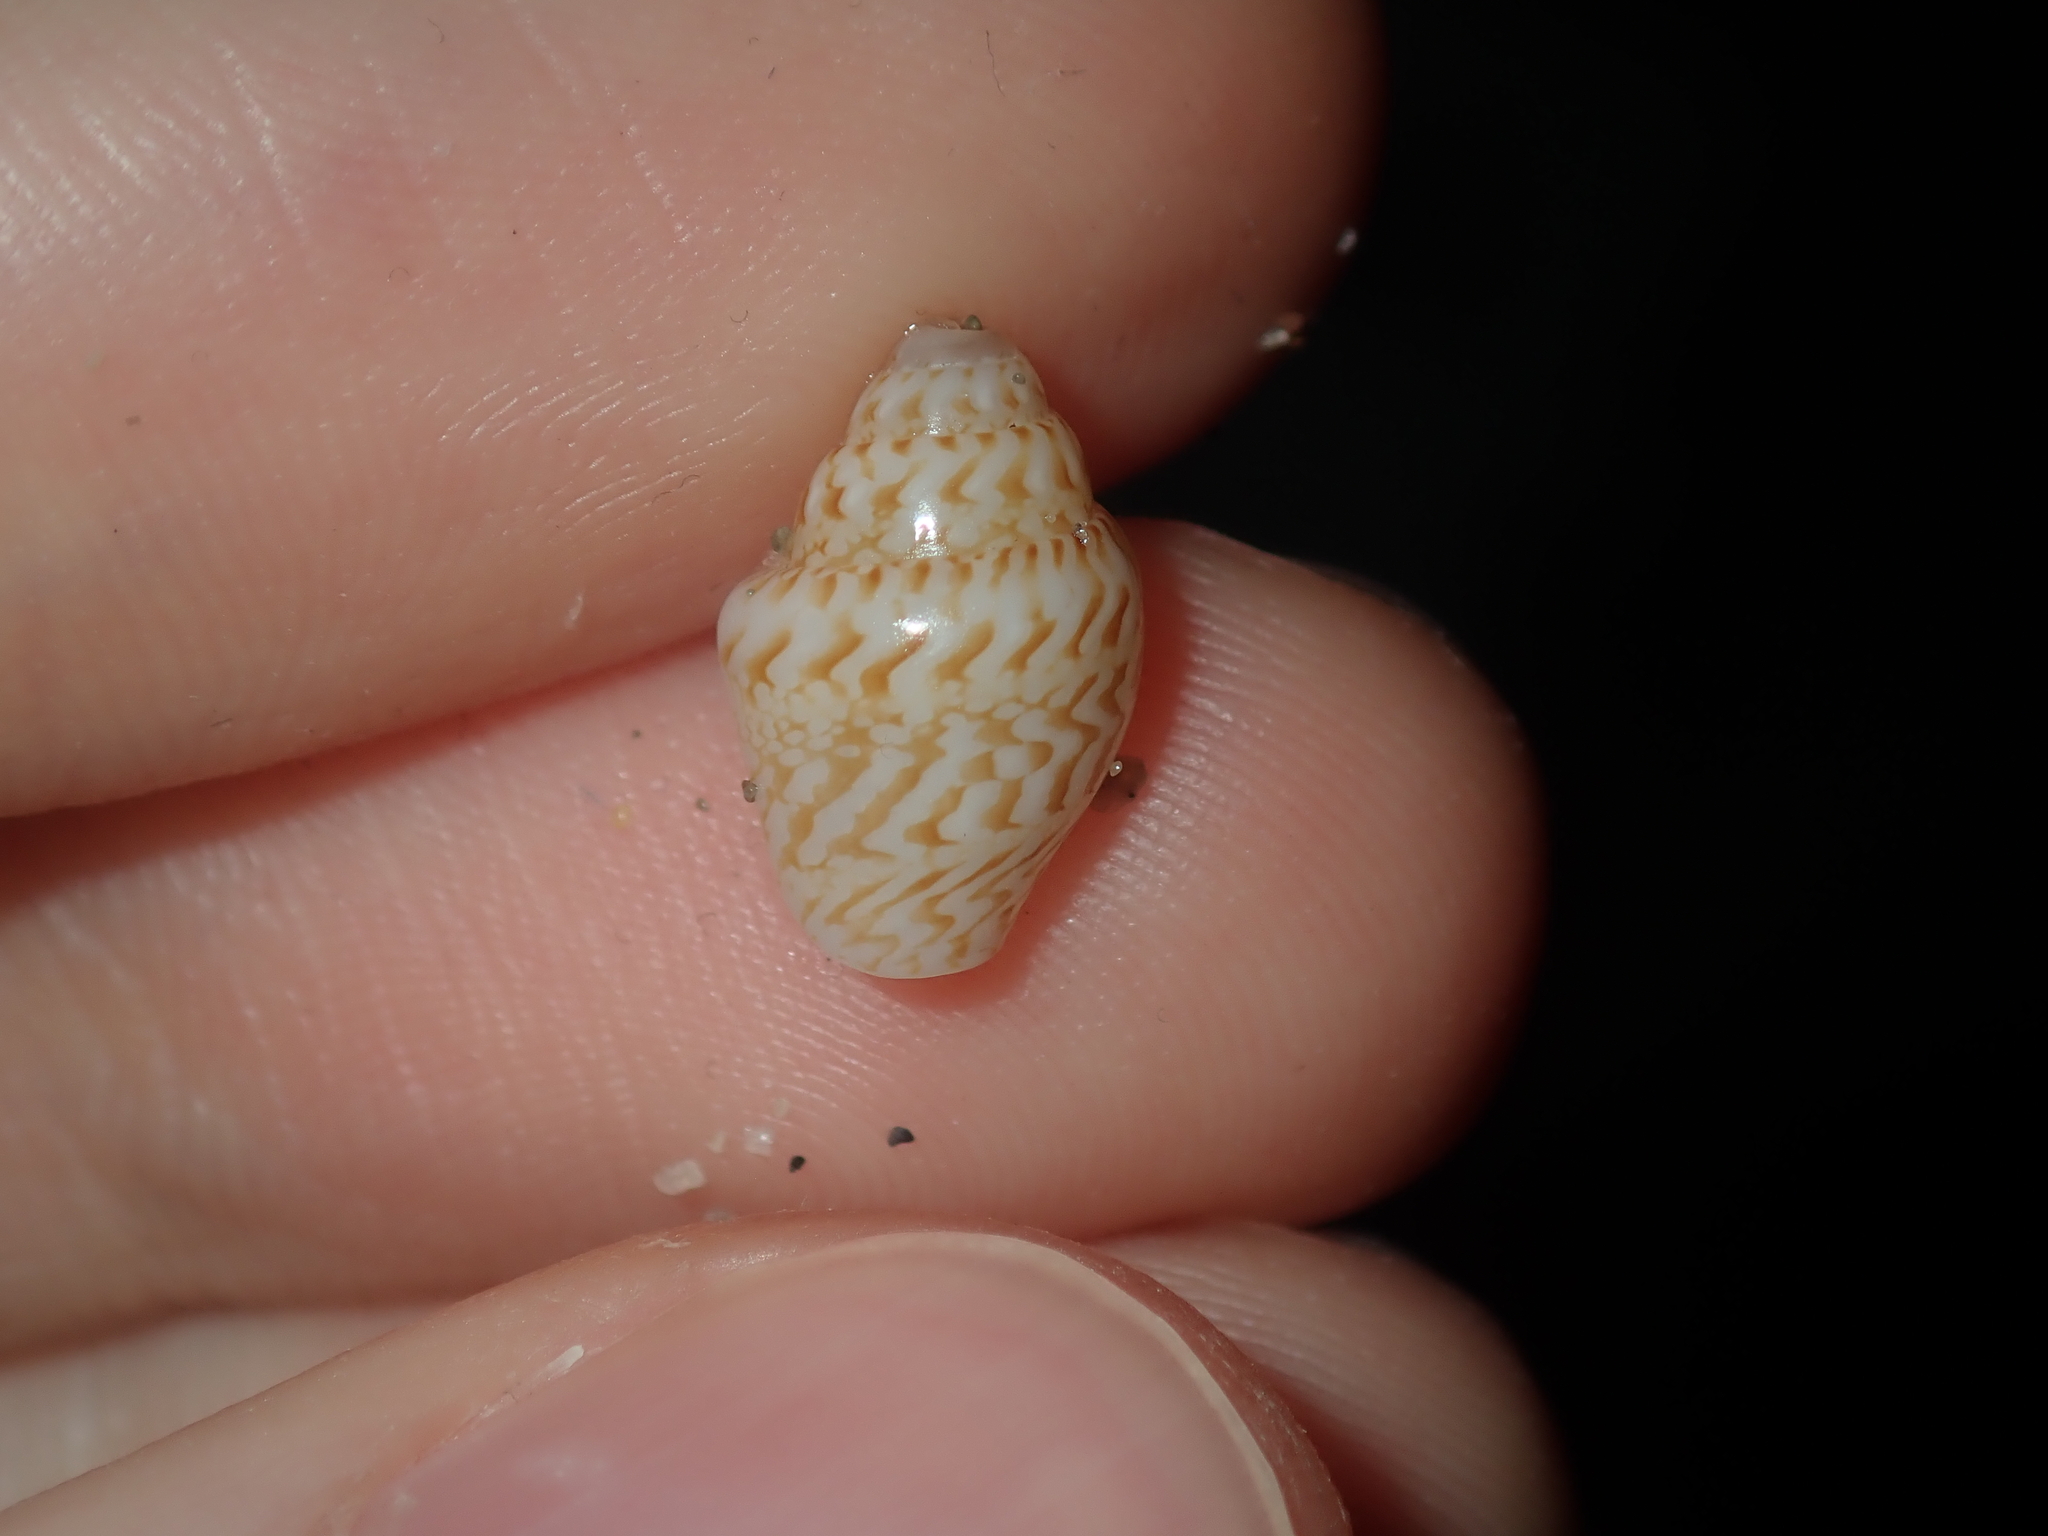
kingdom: Animalia
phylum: Mollusca
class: Gastropoda
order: Neogastropoda
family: Columbellidae
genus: Euplica
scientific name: Euplica bidentata
